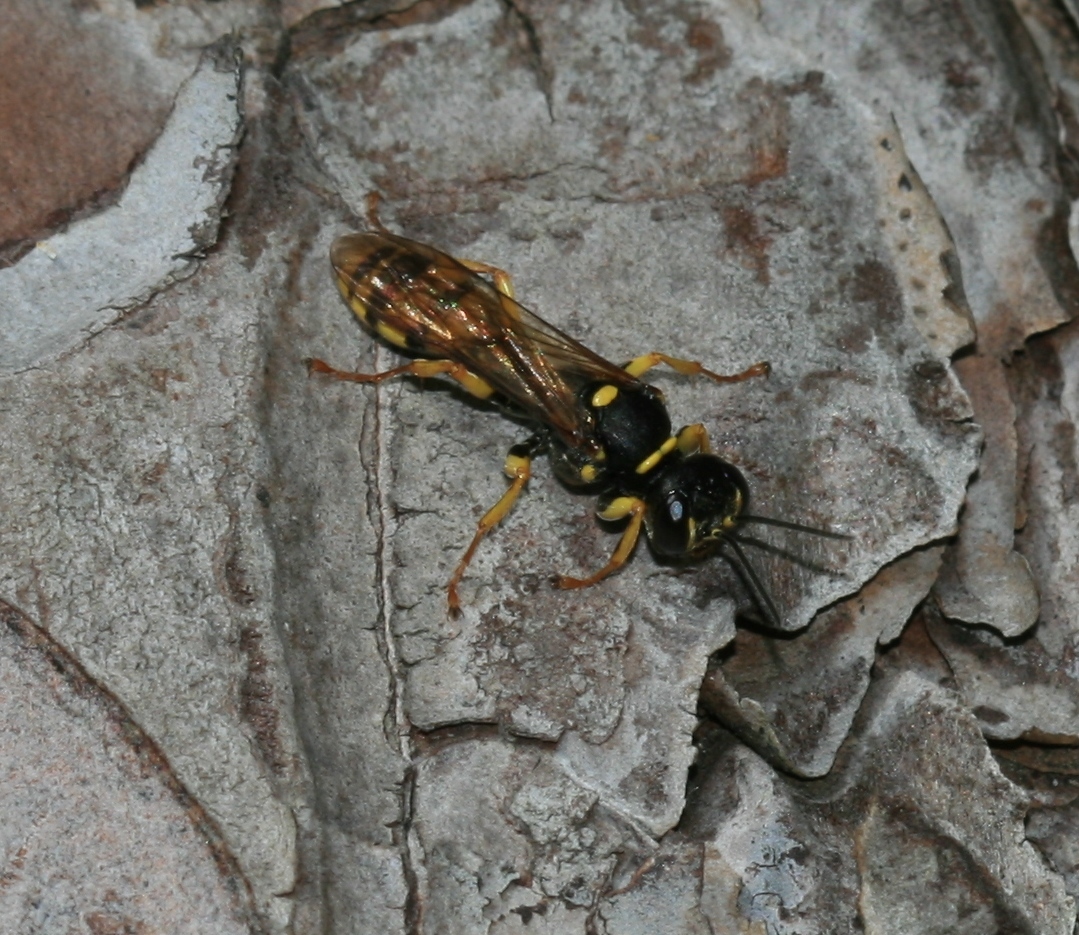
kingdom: Animalia
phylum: Arthropoda
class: Insecta
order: Hymenoptera
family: Crabronidae
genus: Mellinus
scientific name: Mellinus arvensis
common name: Field digger wasp
